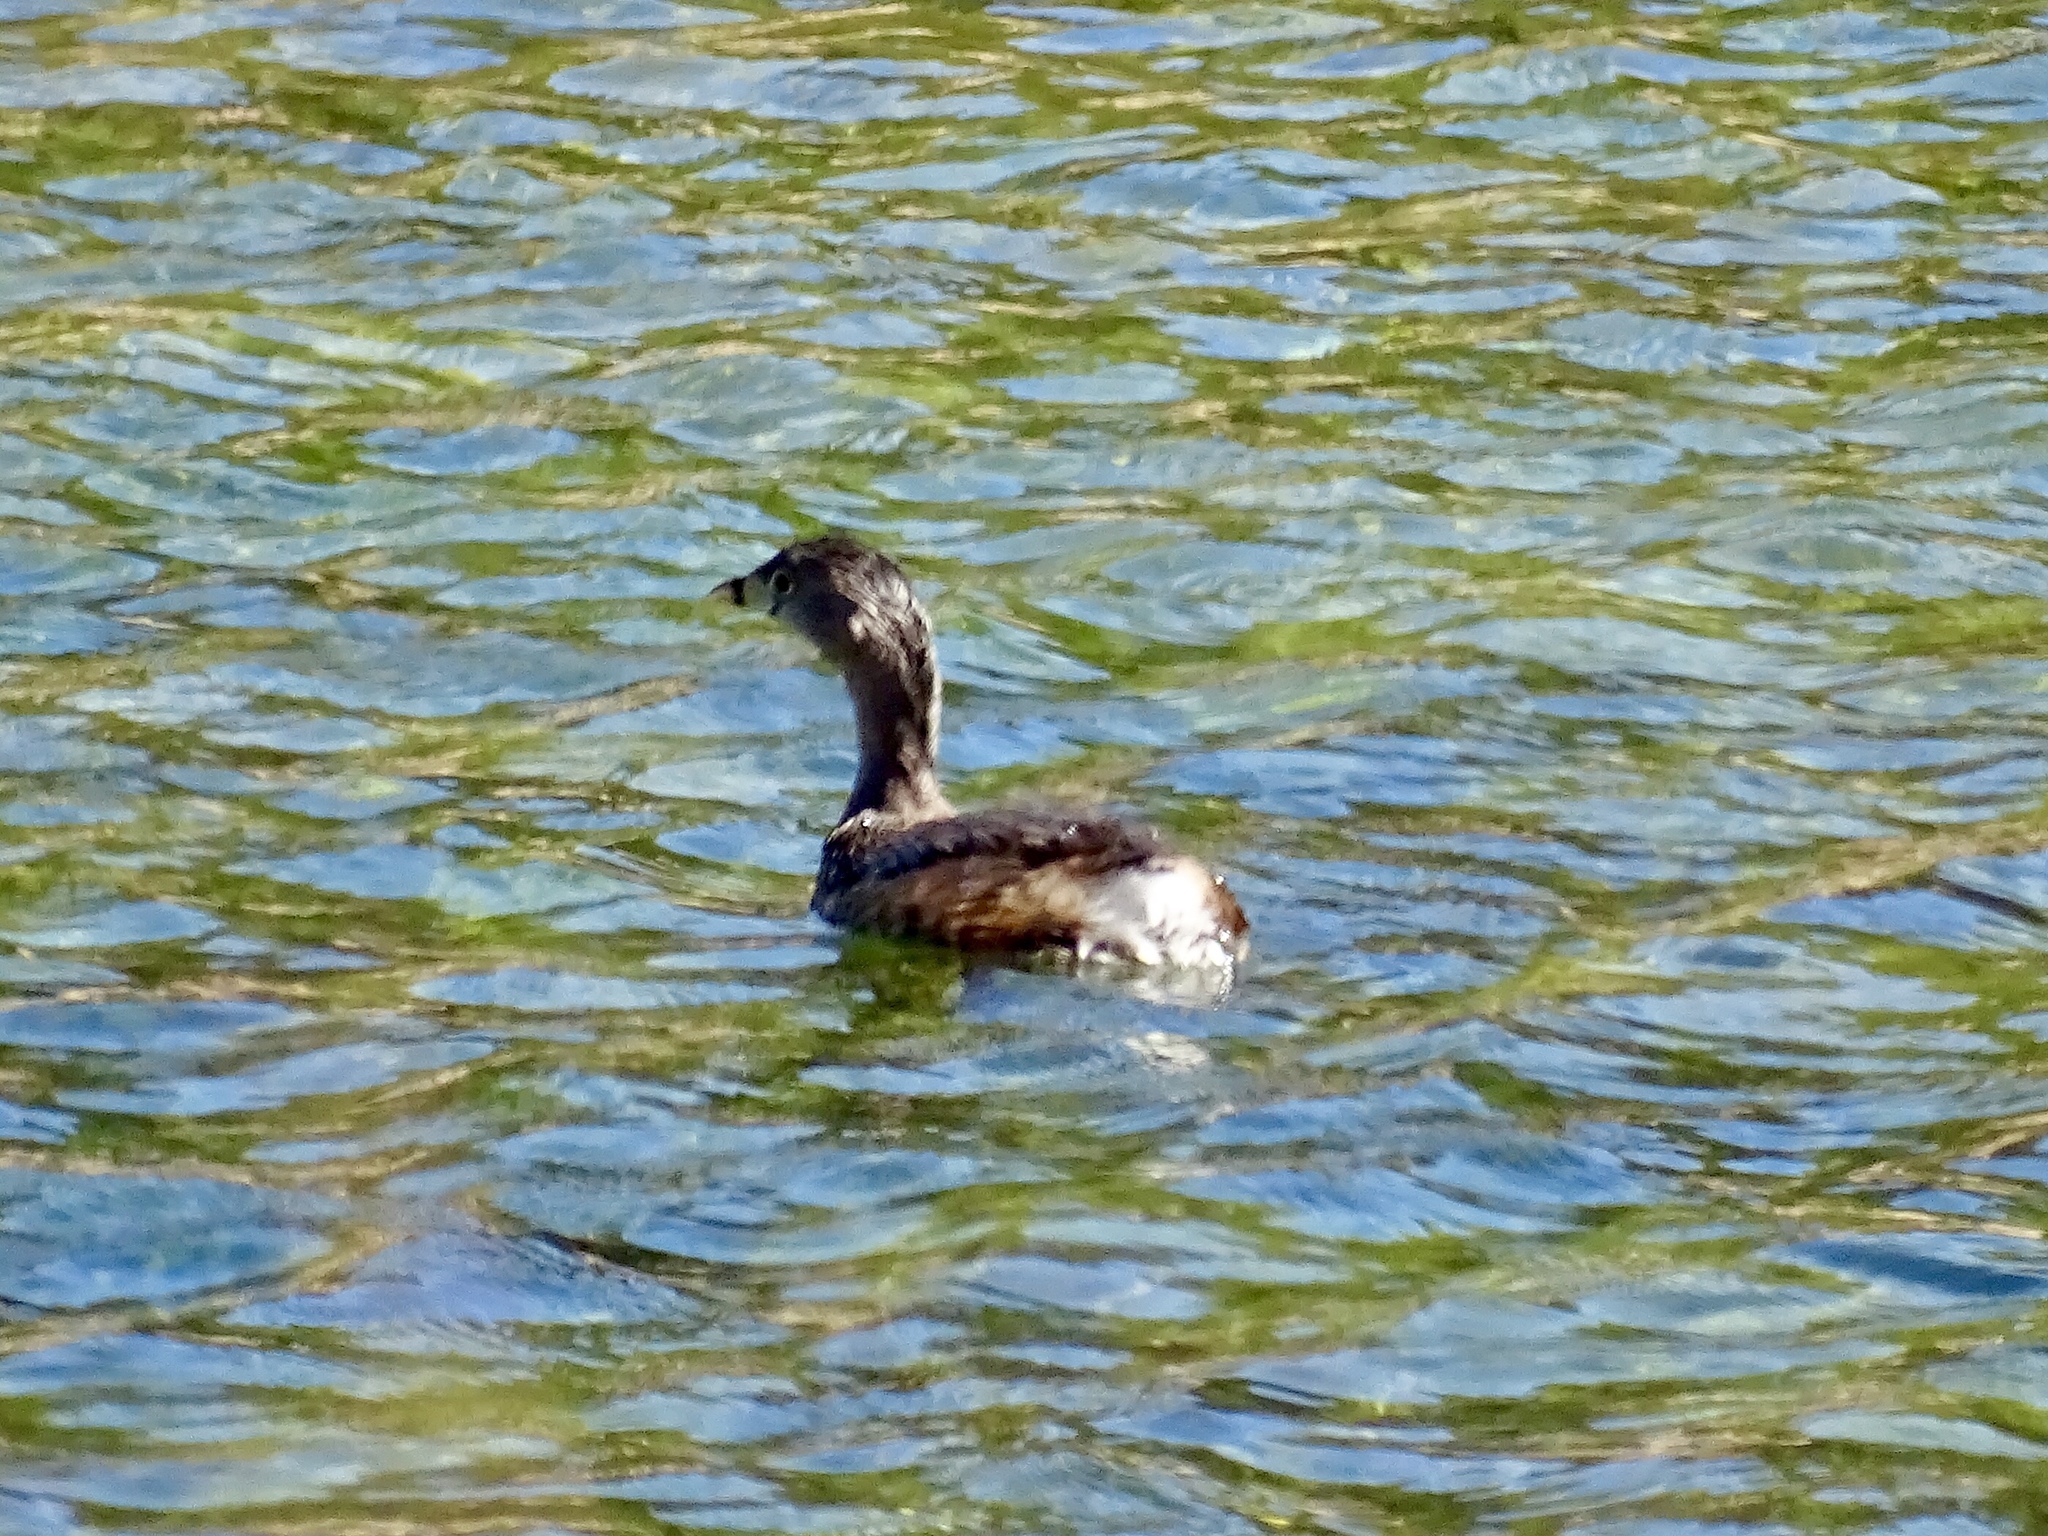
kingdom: Animalia
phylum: Chordata
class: Aves
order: Podicipediformes
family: Podicipedidae
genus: Podilymbus
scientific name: Podilymbus podiceps
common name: Pied-billed grebe
